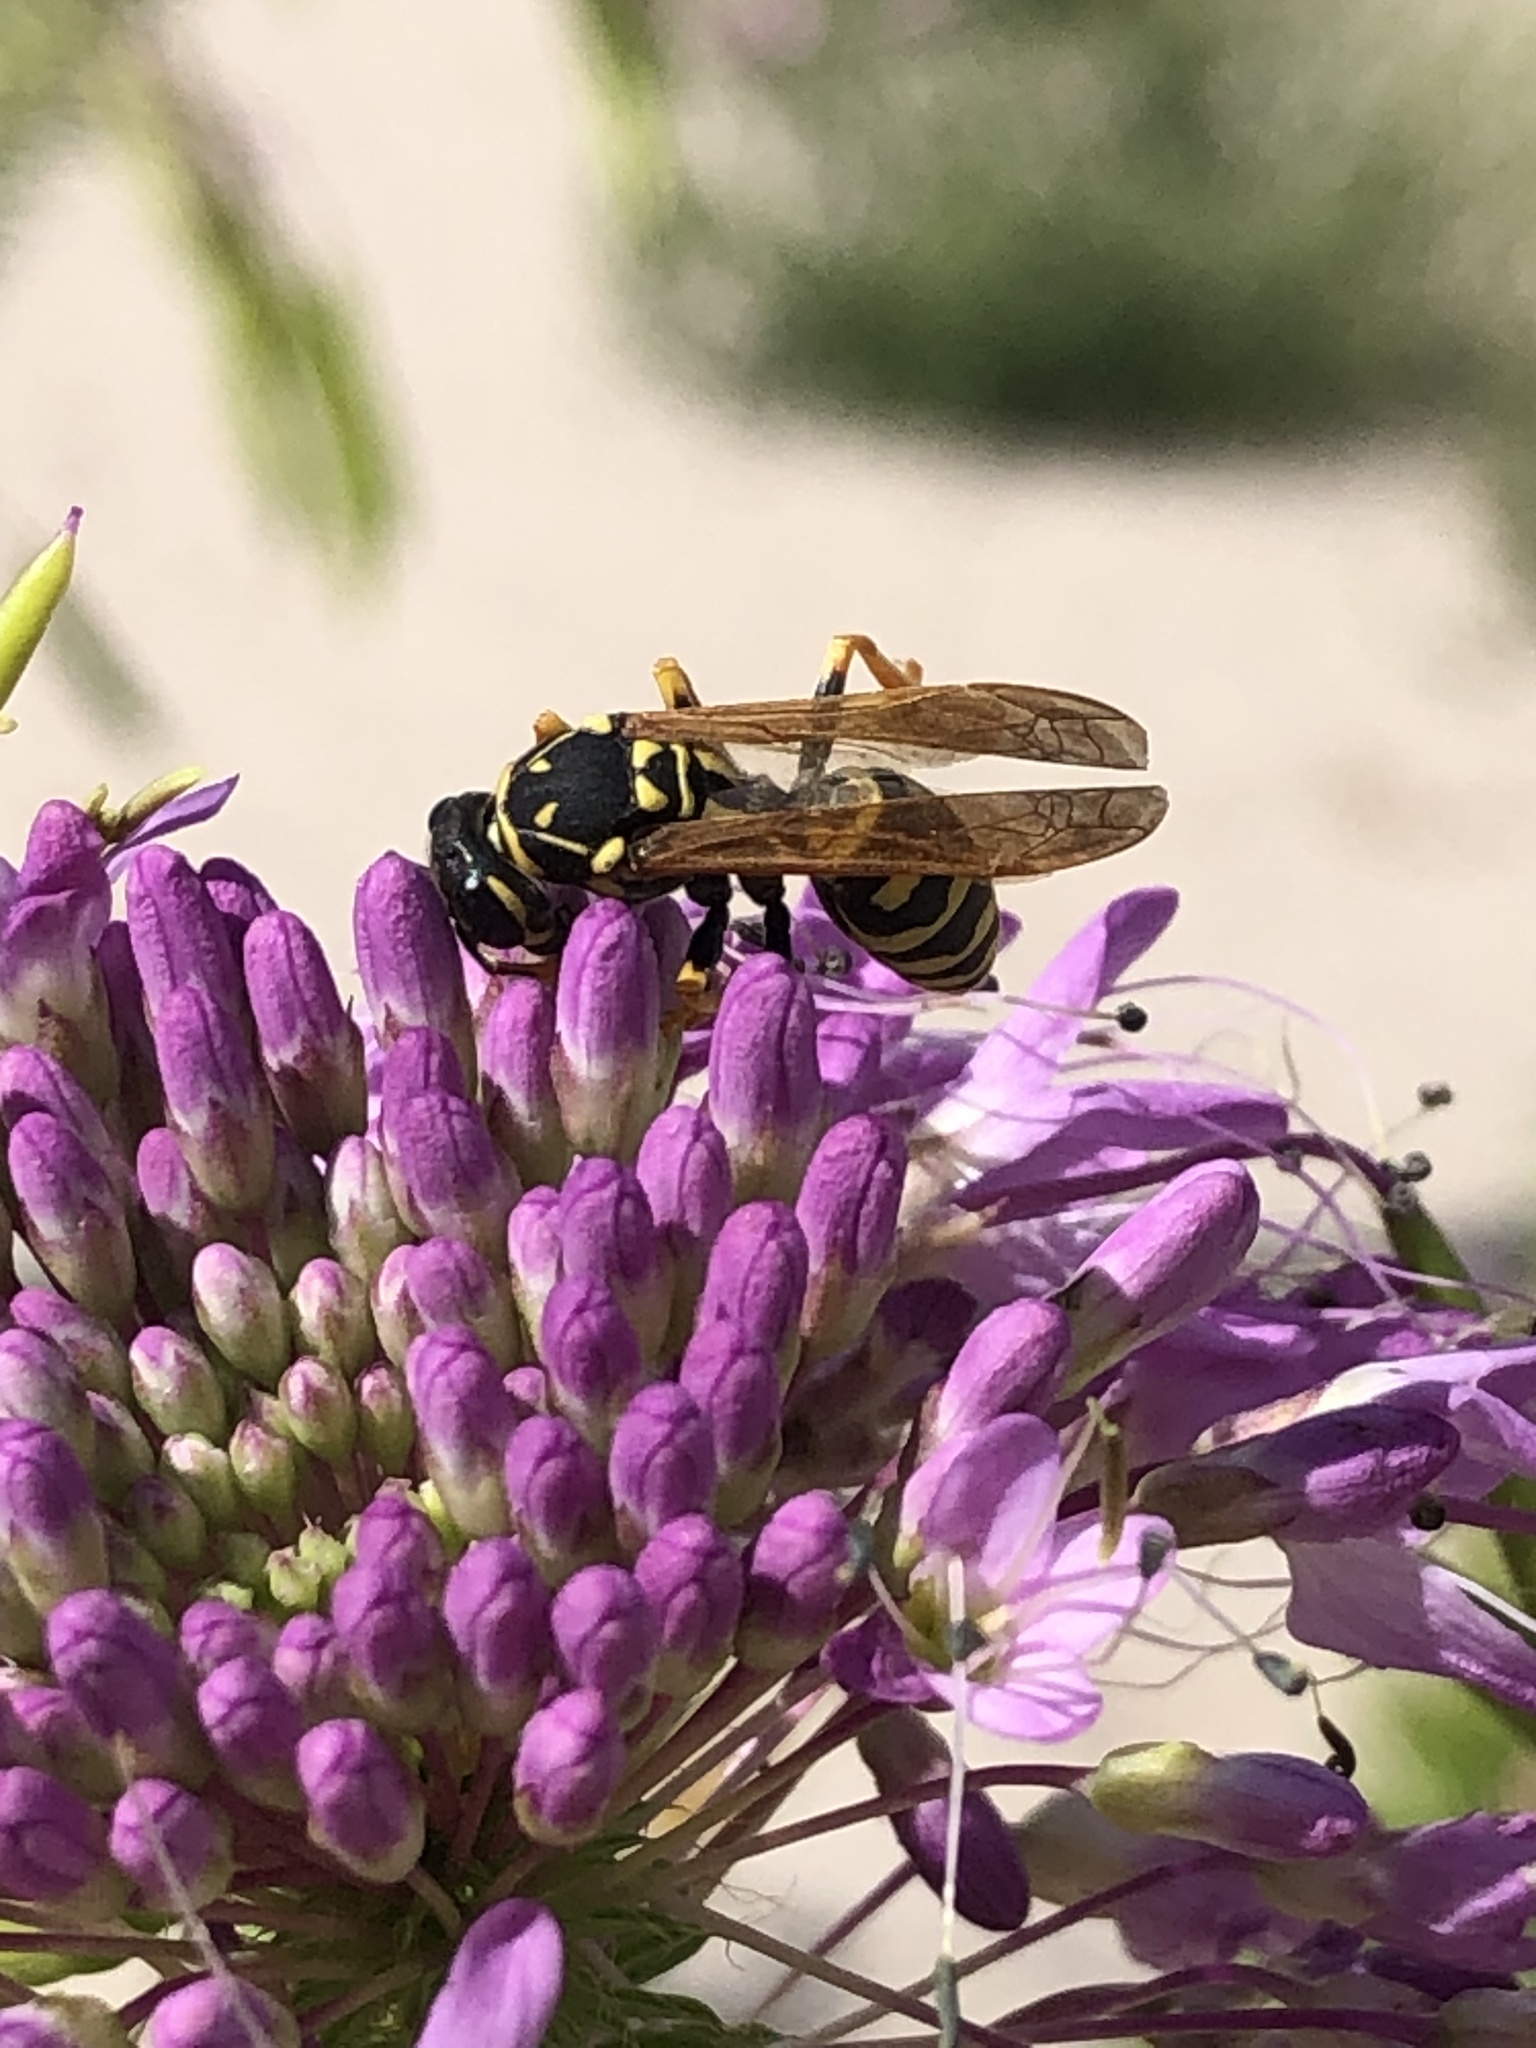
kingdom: Animalia
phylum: Arthropoda
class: Insecta
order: Hymenoptera
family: Eumenidae
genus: Polistes
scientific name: Polistes dominula
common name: Paper wasp
